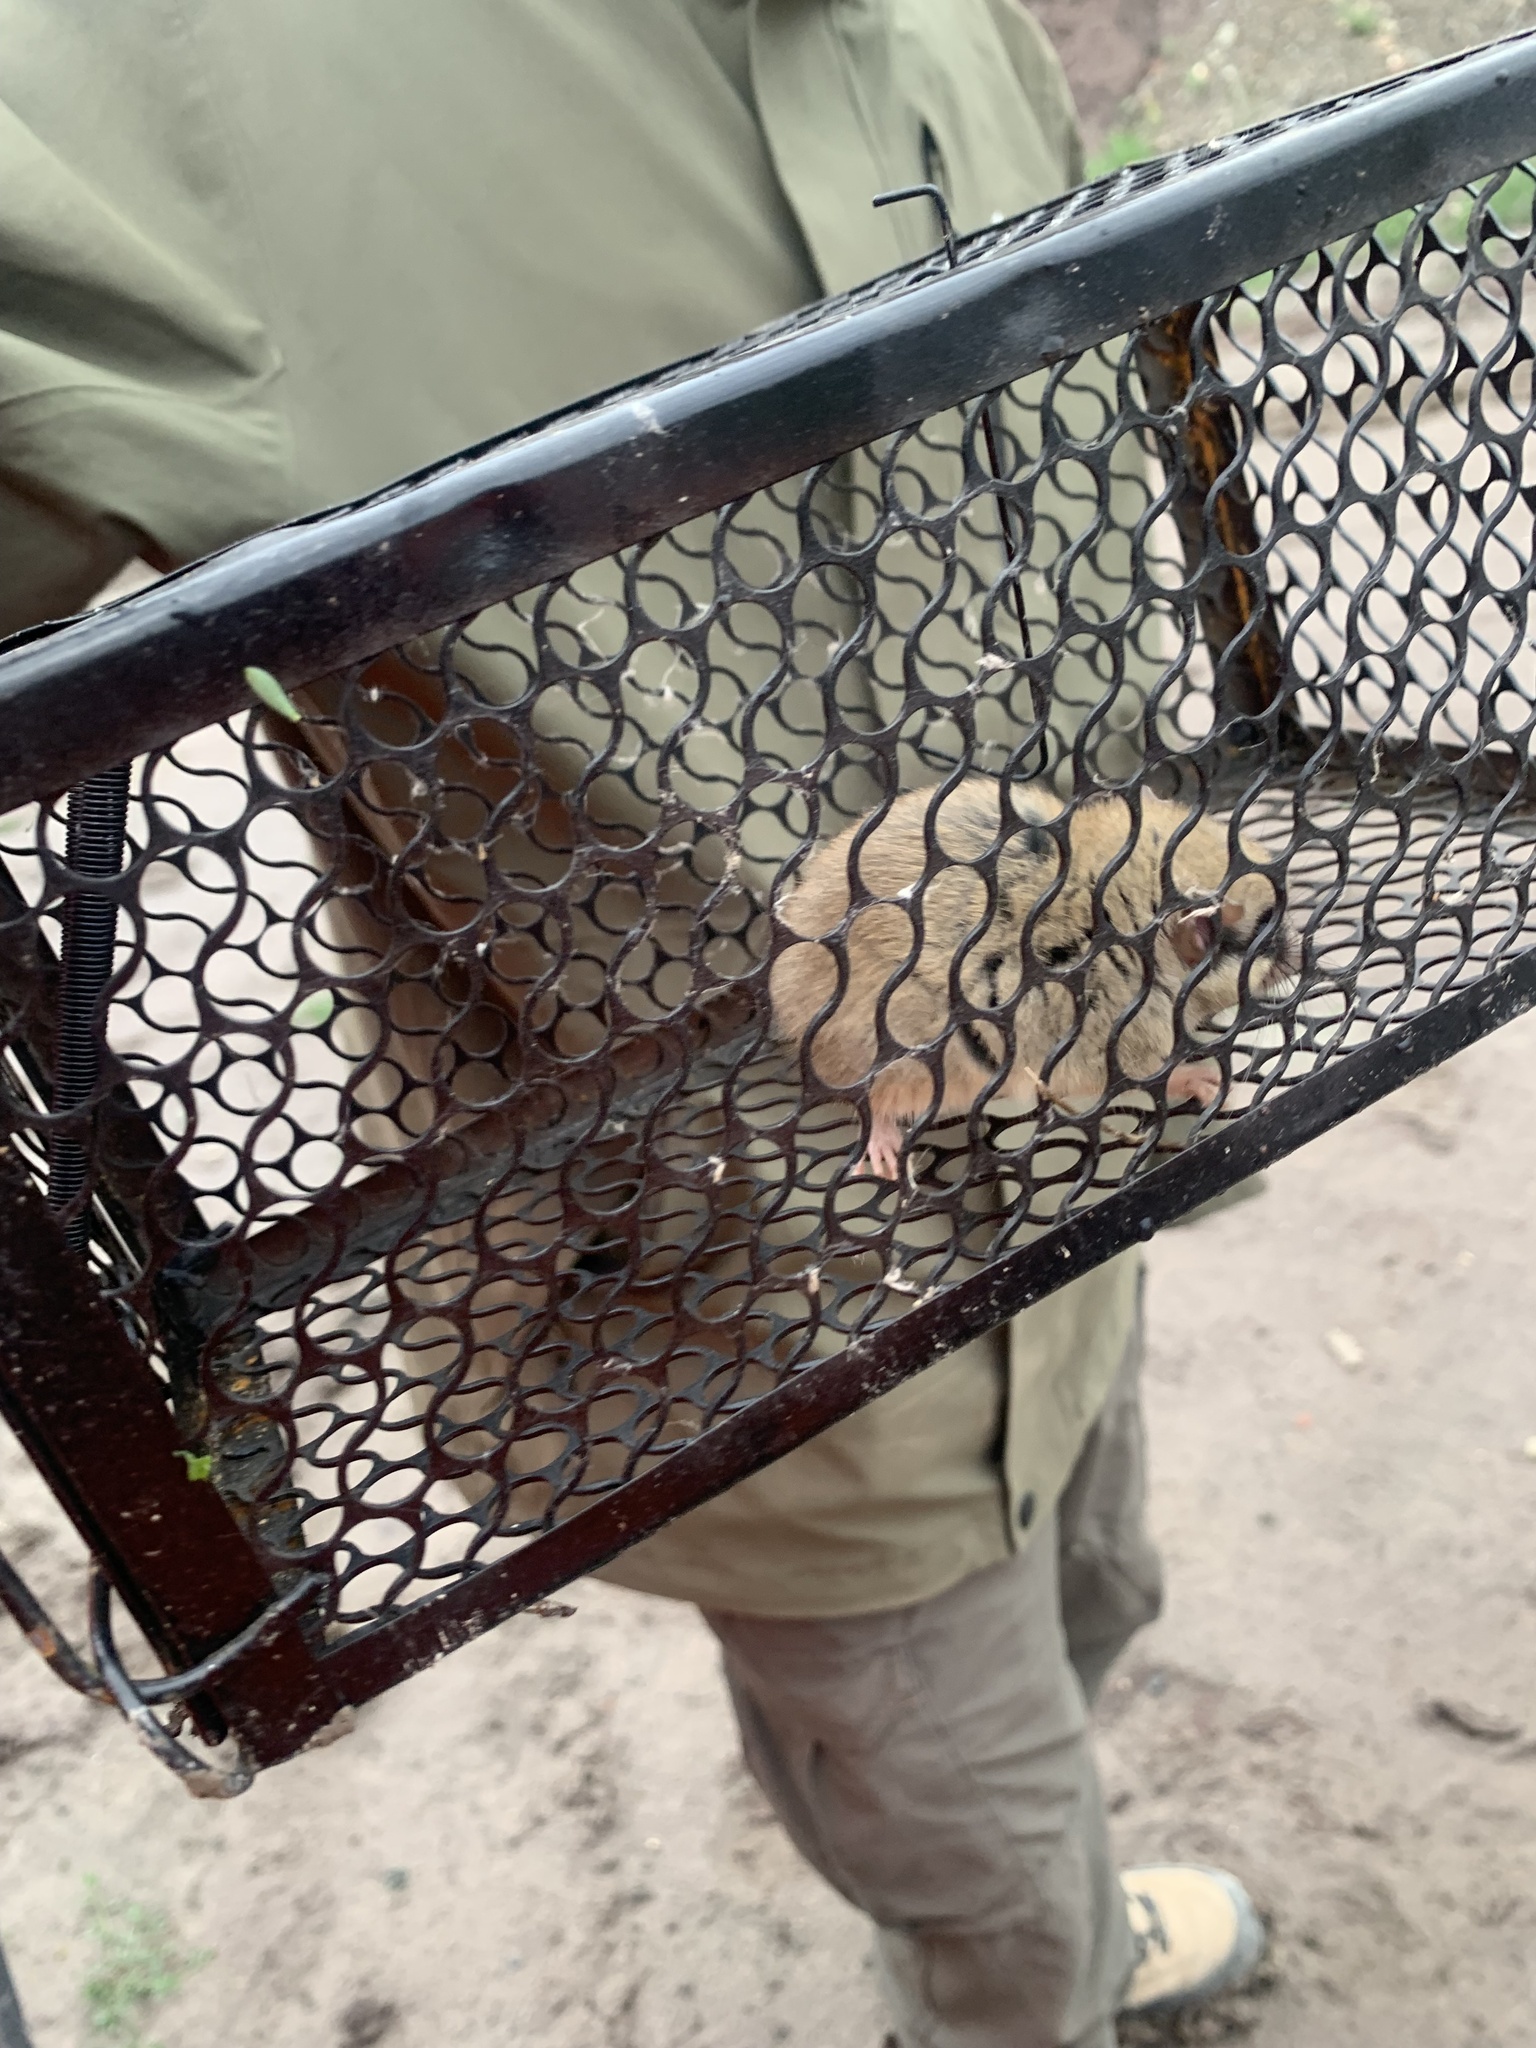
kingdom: Animalia
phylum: Chordata
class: Mammalia
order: Rodentia
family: Gliridae
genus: Dryomys
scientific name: Dryomys nitedula
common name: Forest dormouse
